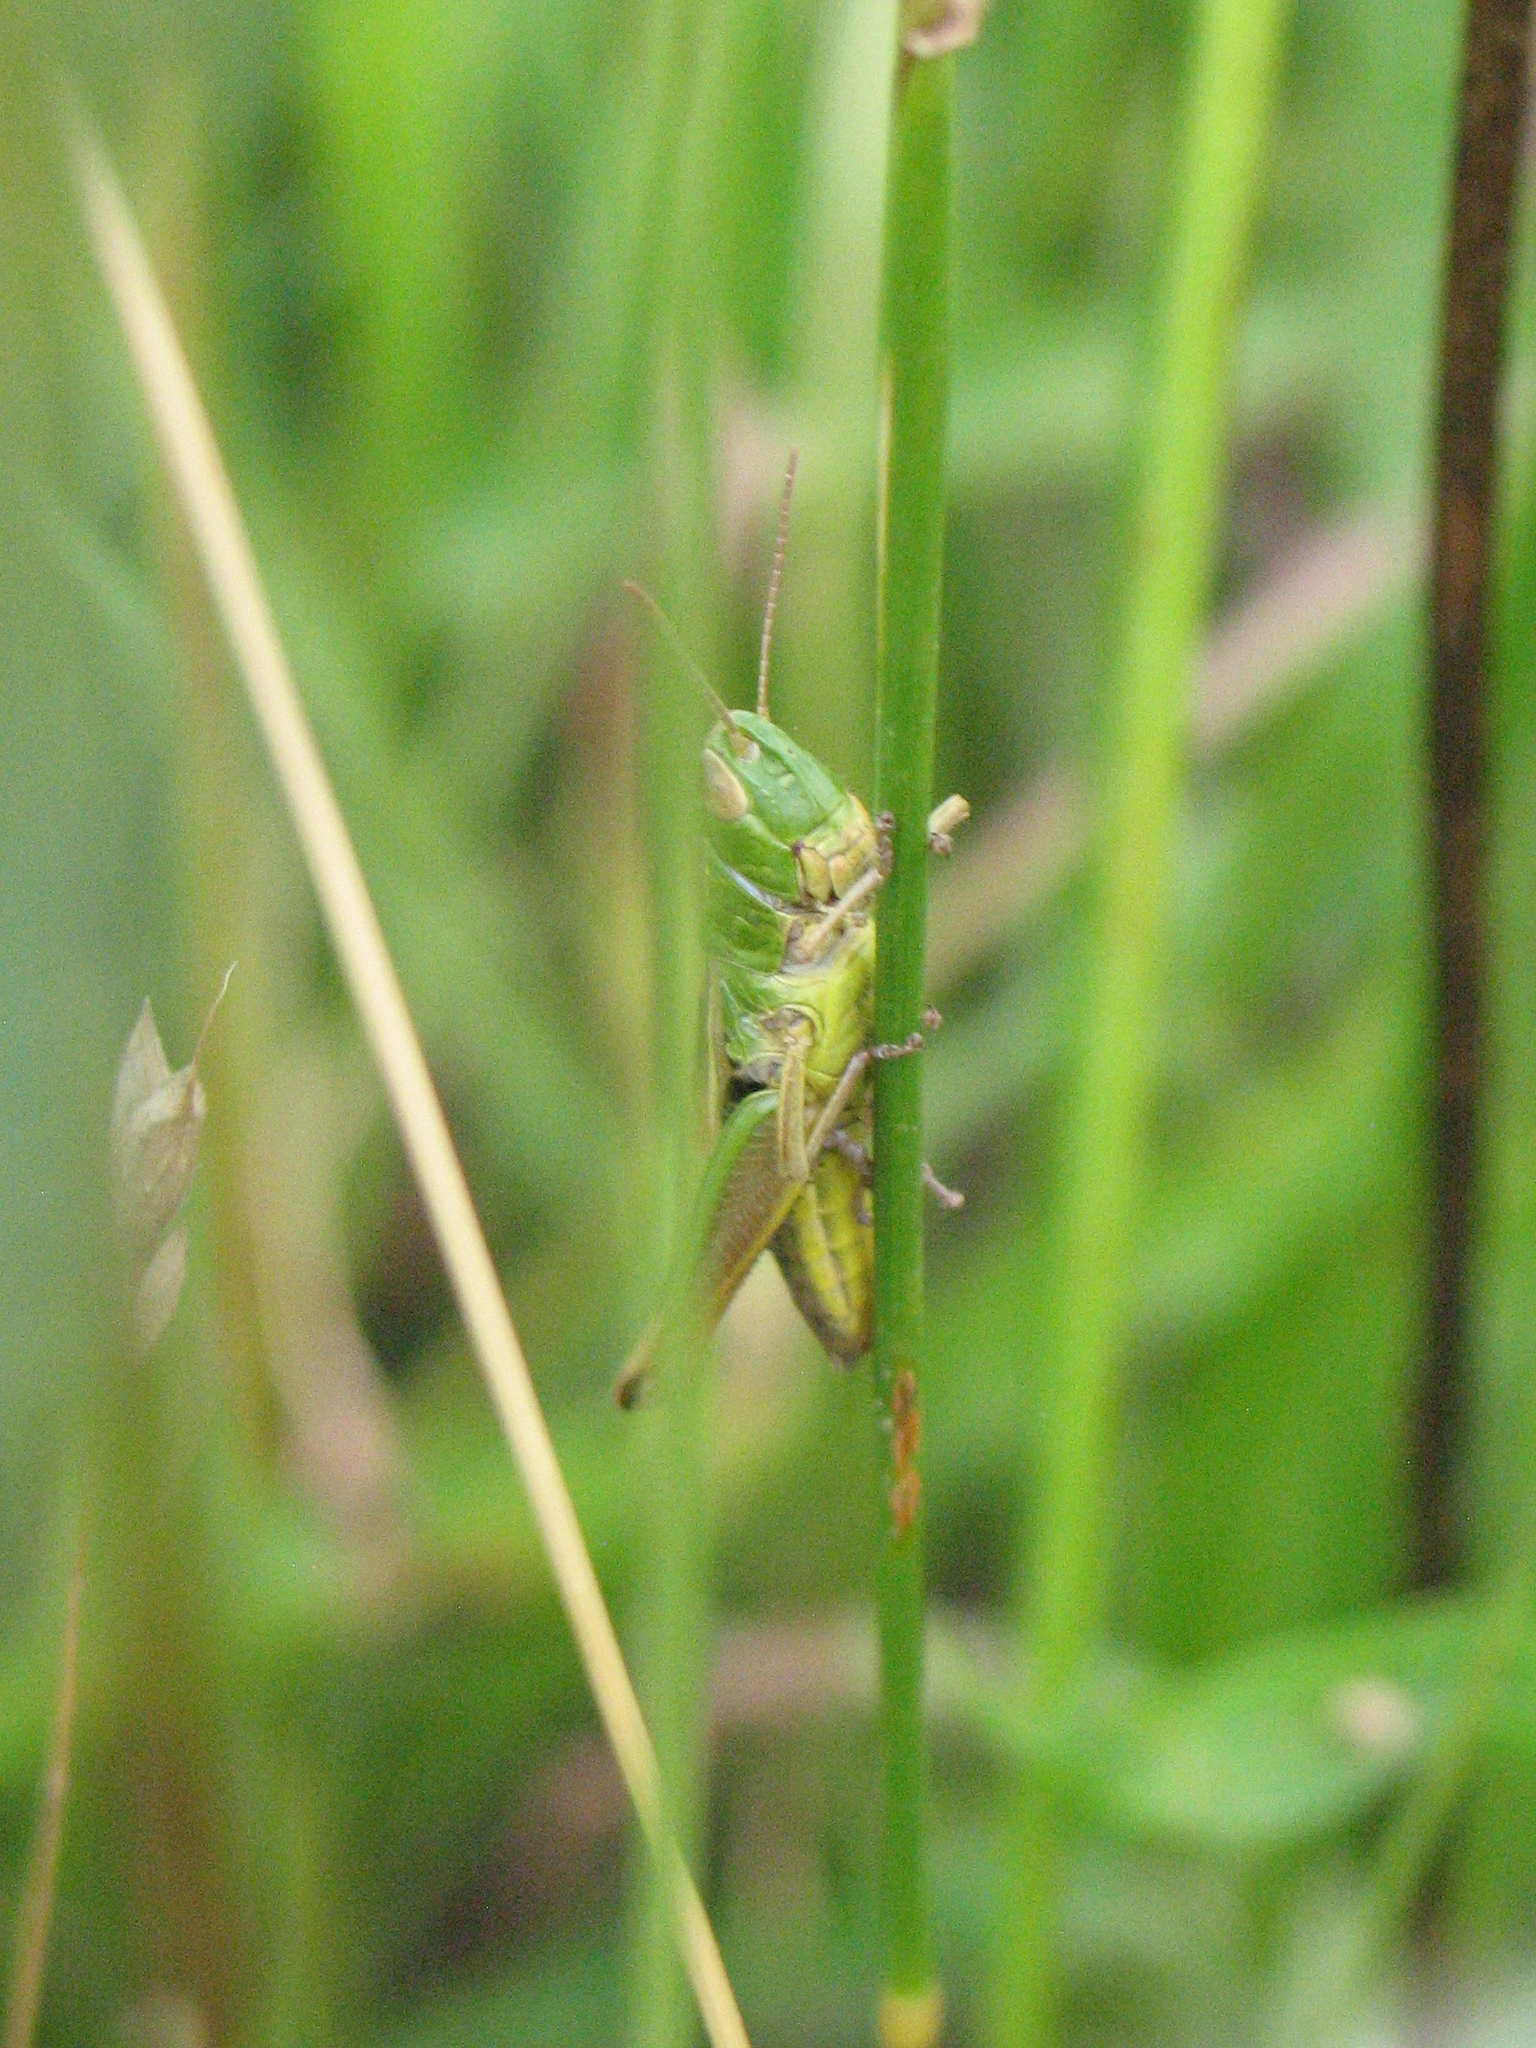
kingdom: Animalia
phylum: Arthropoda
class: Insecta
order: Orthoptera
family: Acrididae
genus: Pseudochorthippus
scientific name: Pseudochorthippus parallelus
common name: Meadow grasshopper
